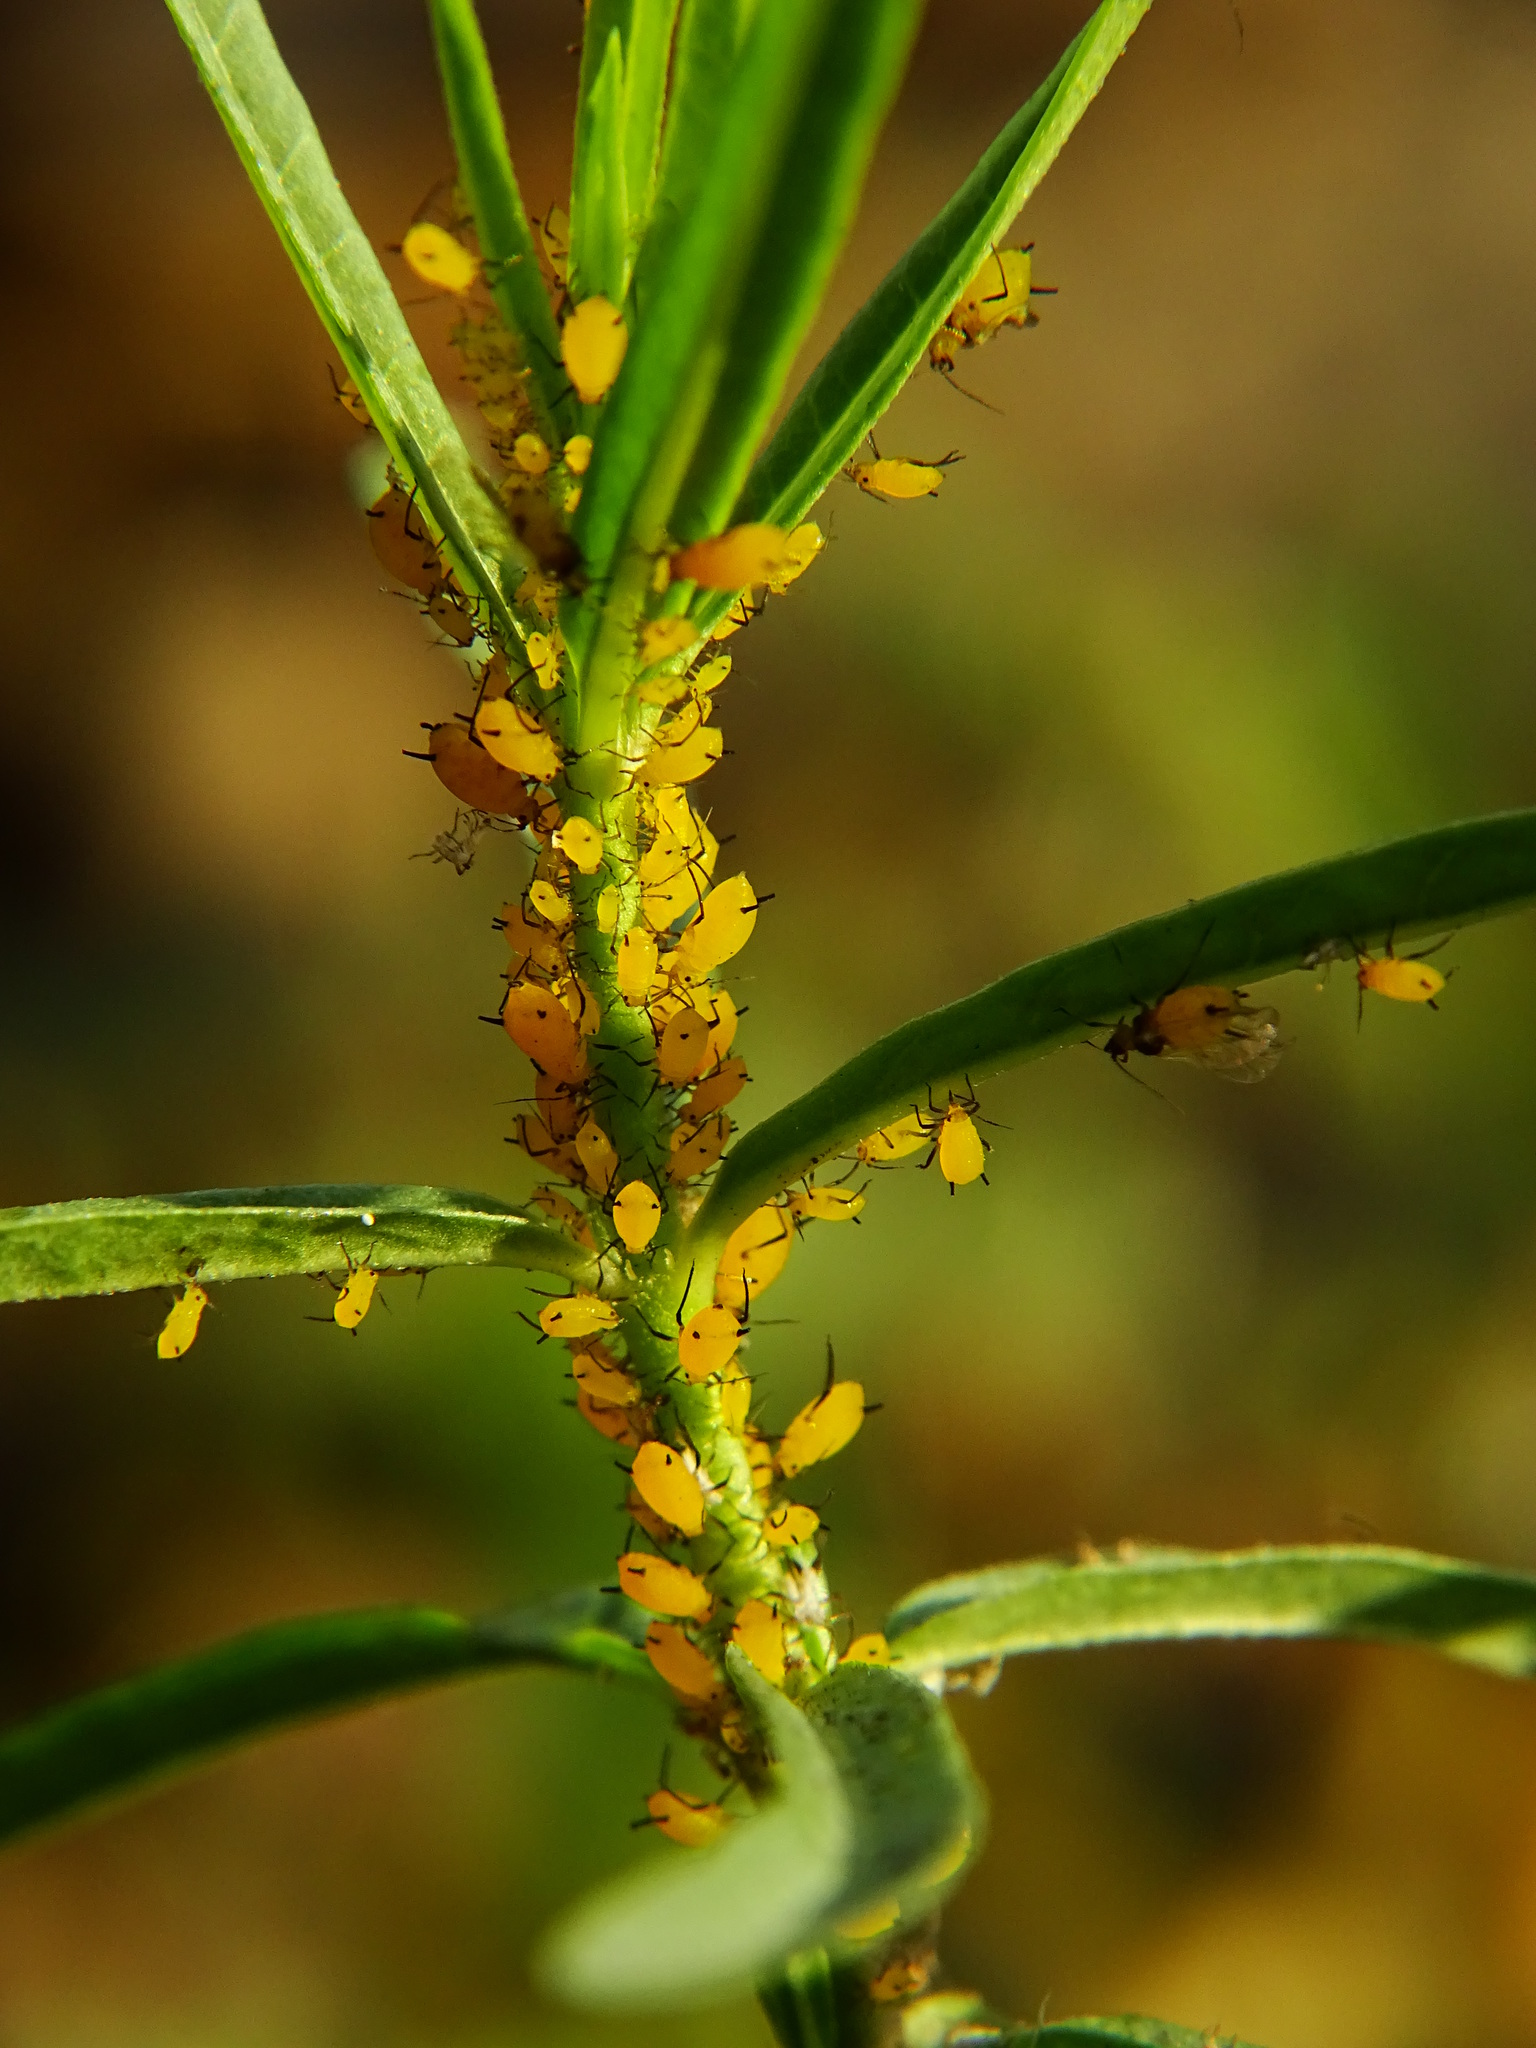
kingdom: Animalia
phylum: Arthropoda
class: Insecta
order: Hemiptera
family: Aphididae
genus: Aphis
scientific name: Aphis nerii
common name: Oleander aphid
